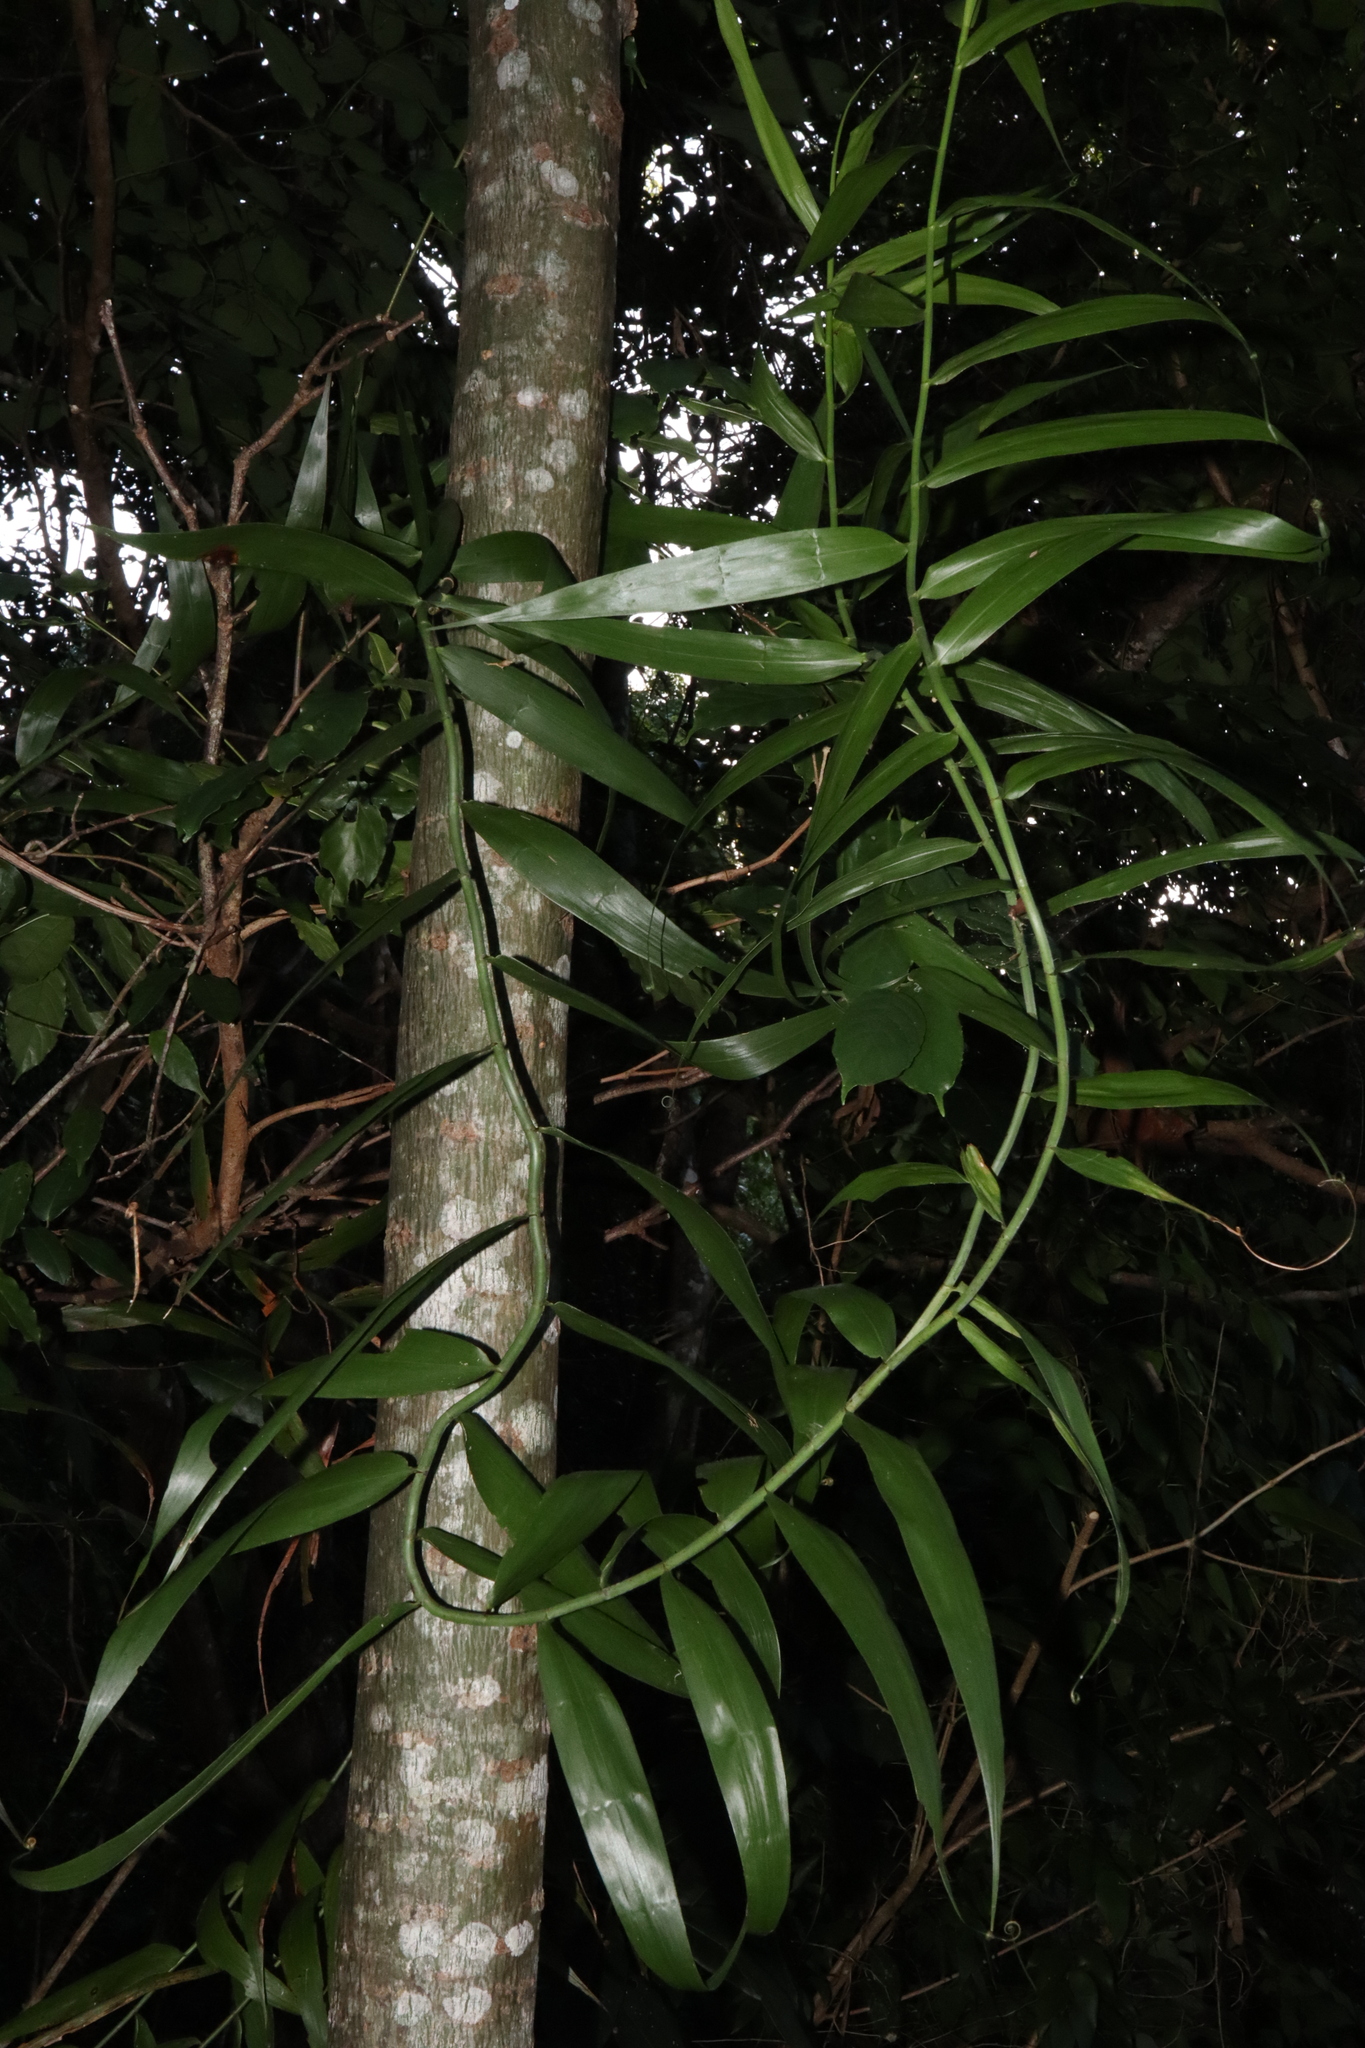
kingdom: Plantae
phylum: Tracheophyta
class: Liliopsida
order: Poales
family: Flagellariaceae
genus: Flagellaria
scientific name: Flagellaria indica
